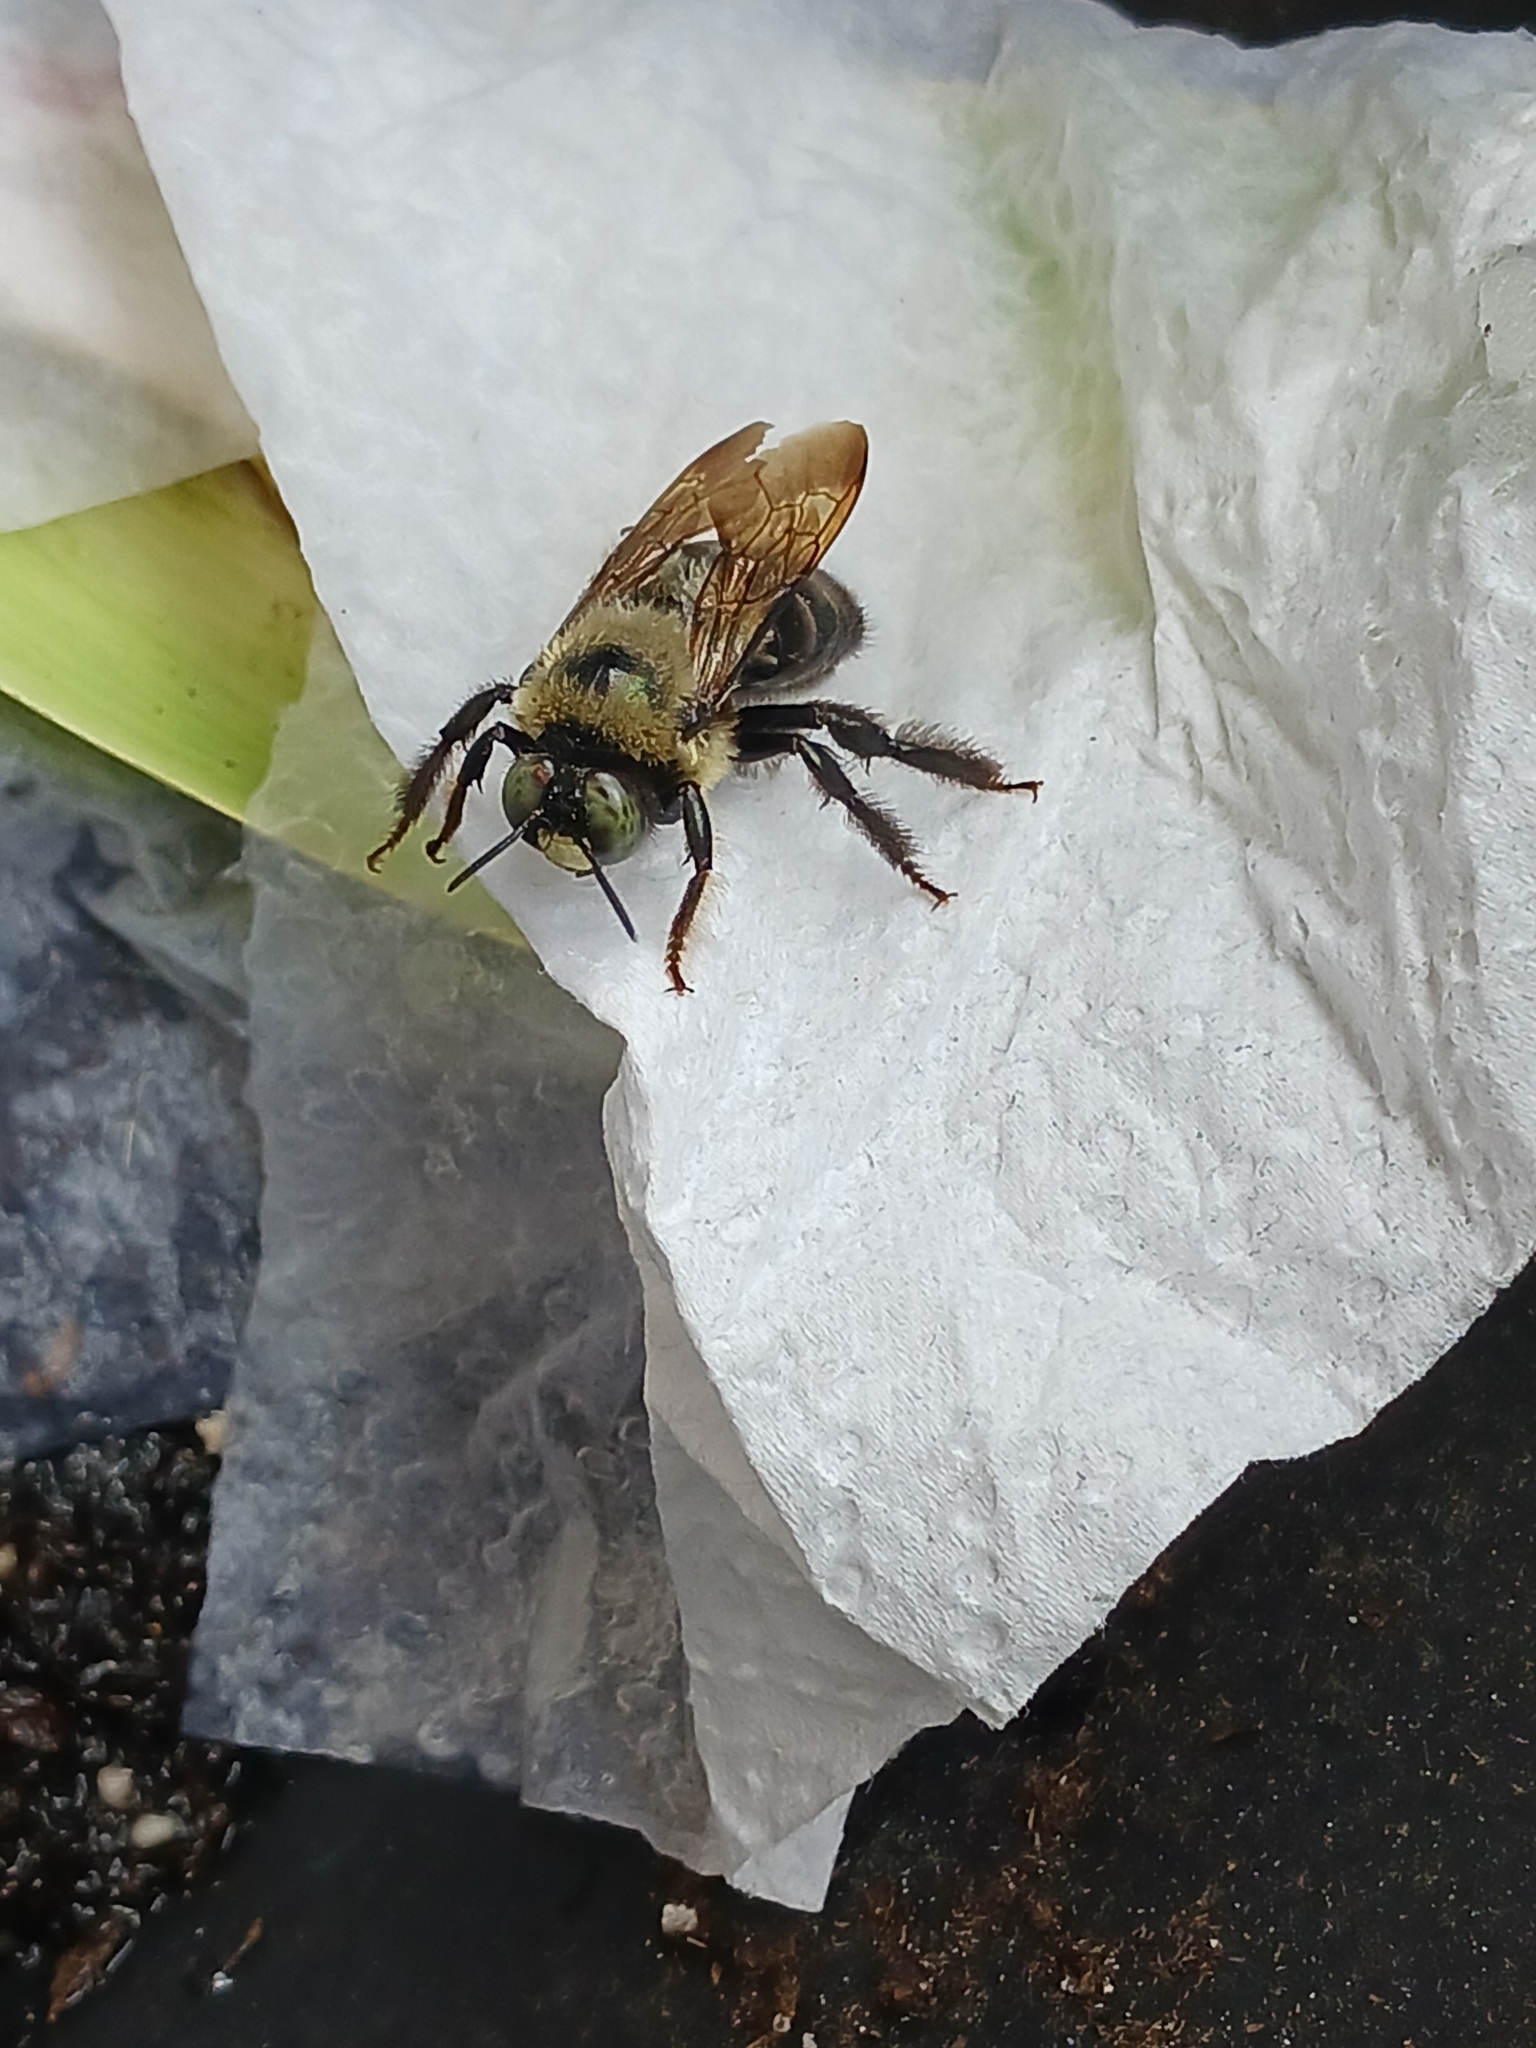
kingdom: Animalia
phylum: Arthropoda
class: Insecta
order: Hymenoptera
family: Apidae
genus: Xylocopa
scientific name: Xylocopa virginica
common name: Carpenter bee
